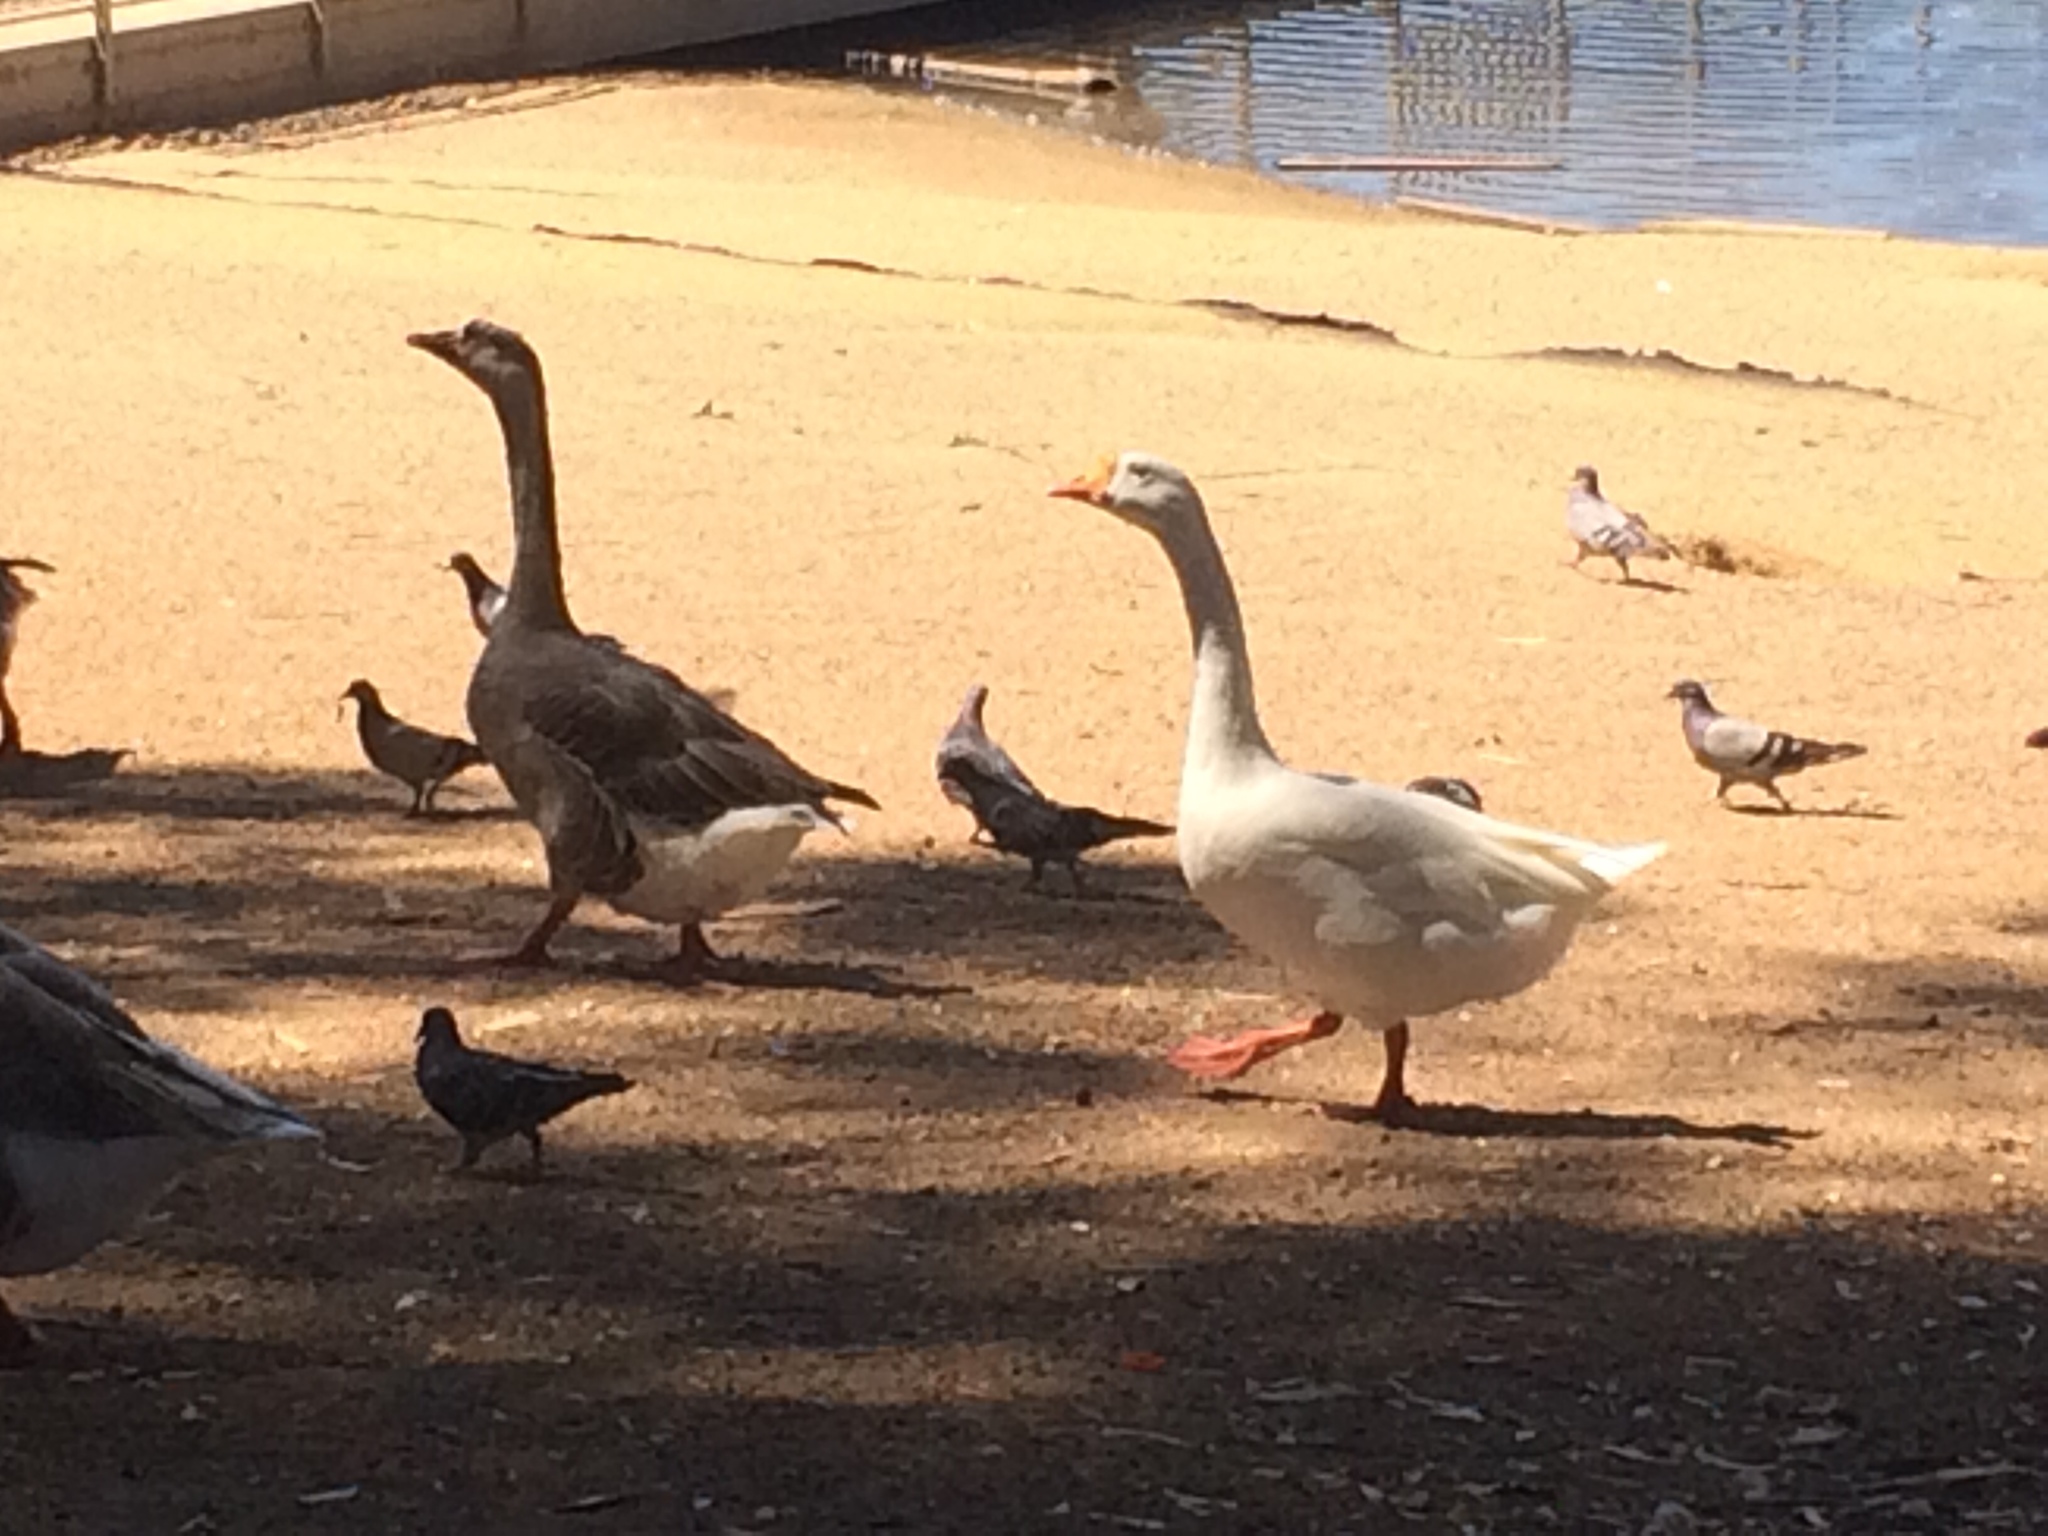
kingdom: Animalia
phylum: Chordata
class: Aves
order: Anseriformes
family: Anatidae
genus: Anser
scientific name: Anser
